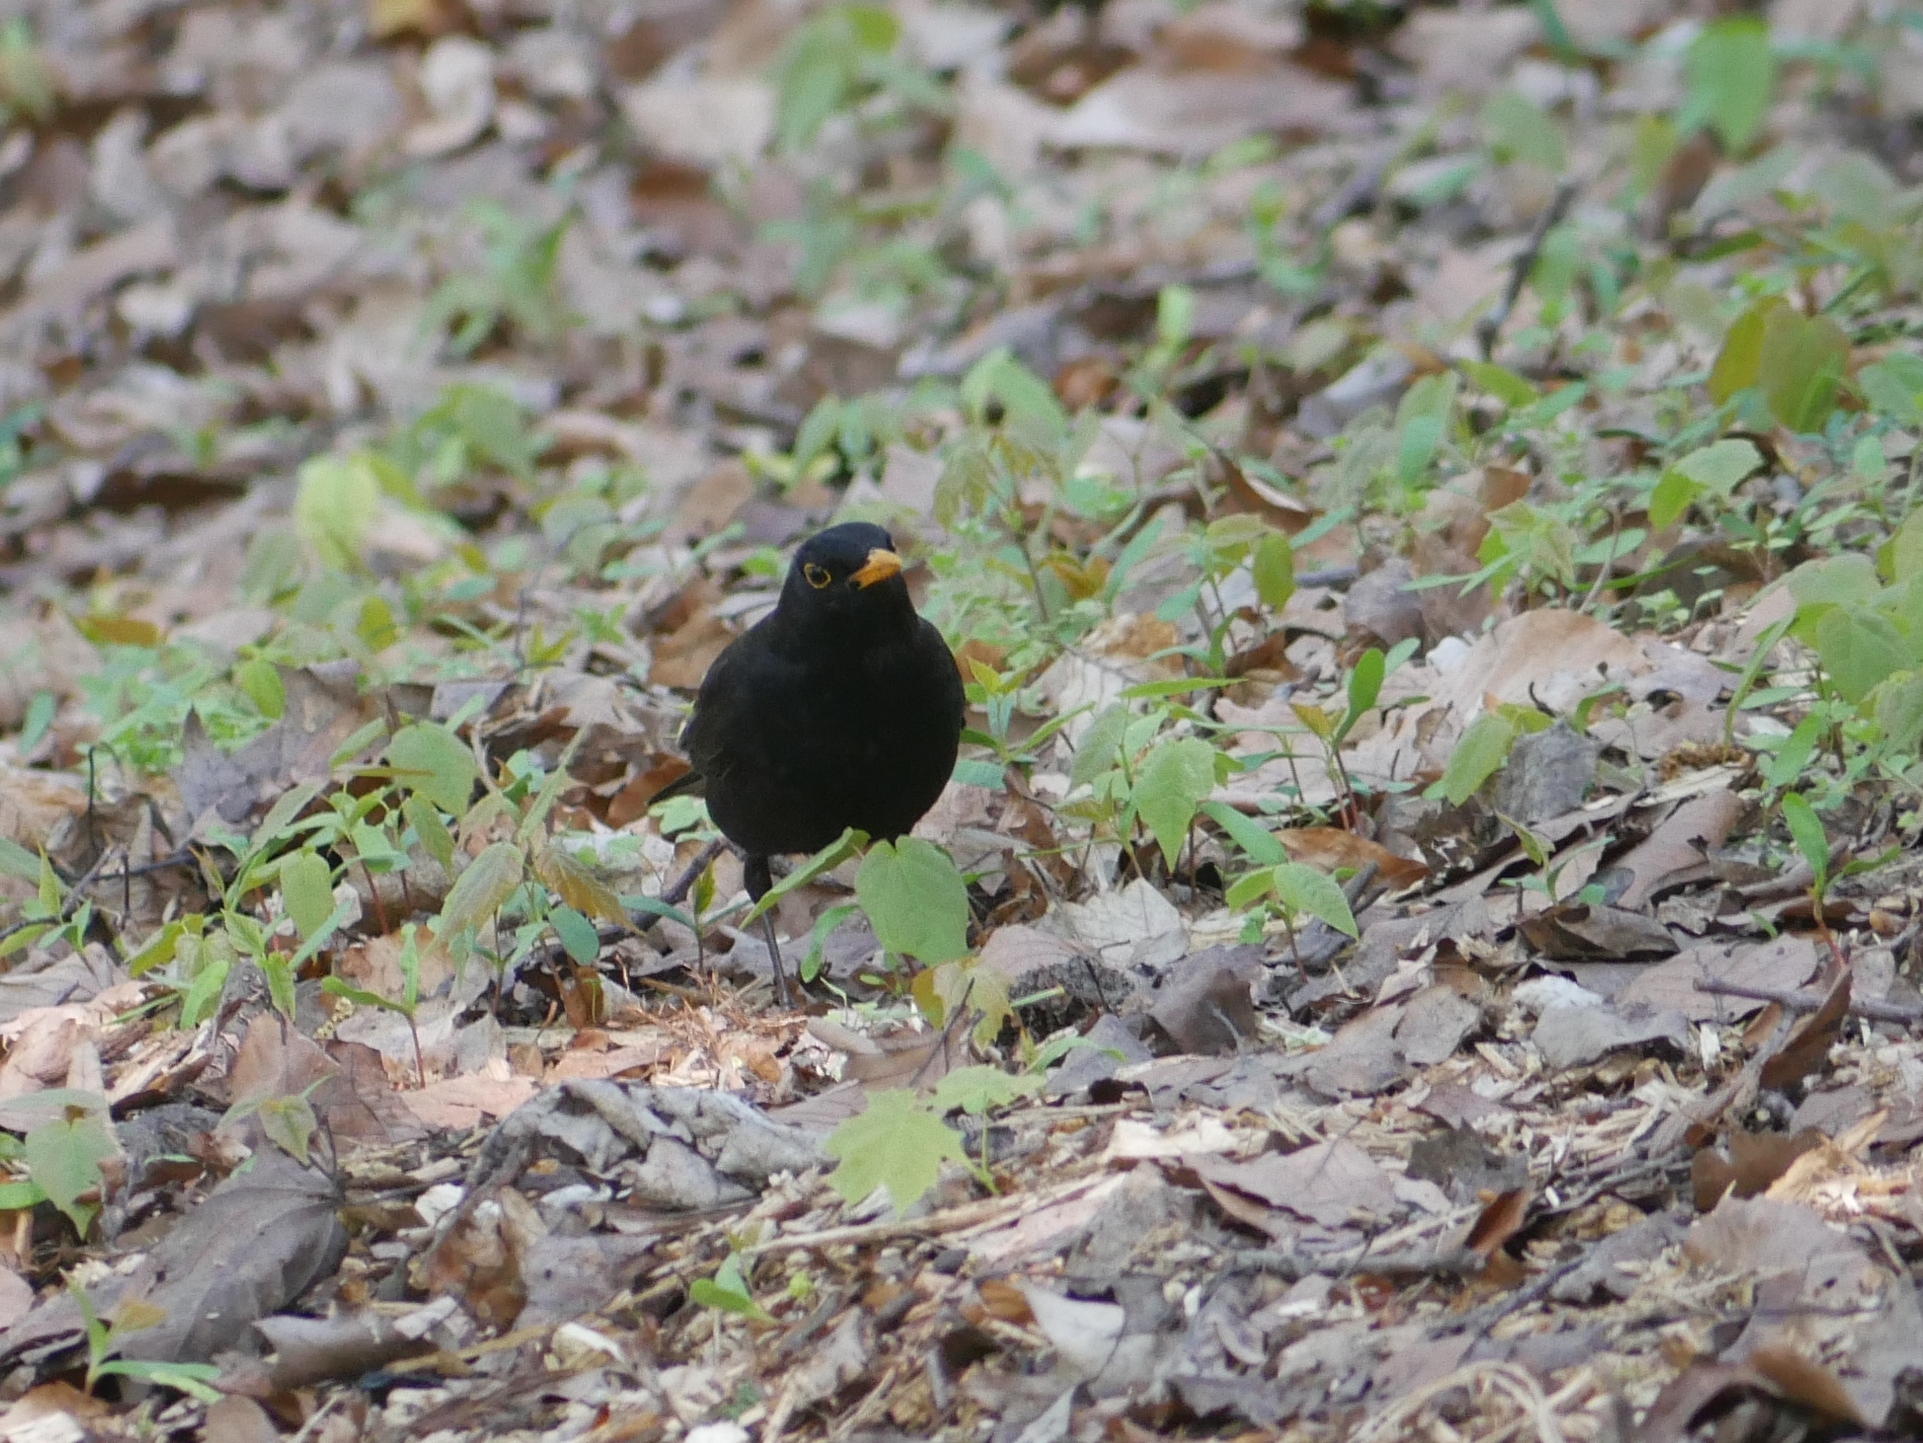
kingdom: Animalia
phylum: Chordata
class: Aves
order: Passeriformes
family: Turdidae
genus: Turdus
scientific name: Turdus merula
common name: Common blackbird
